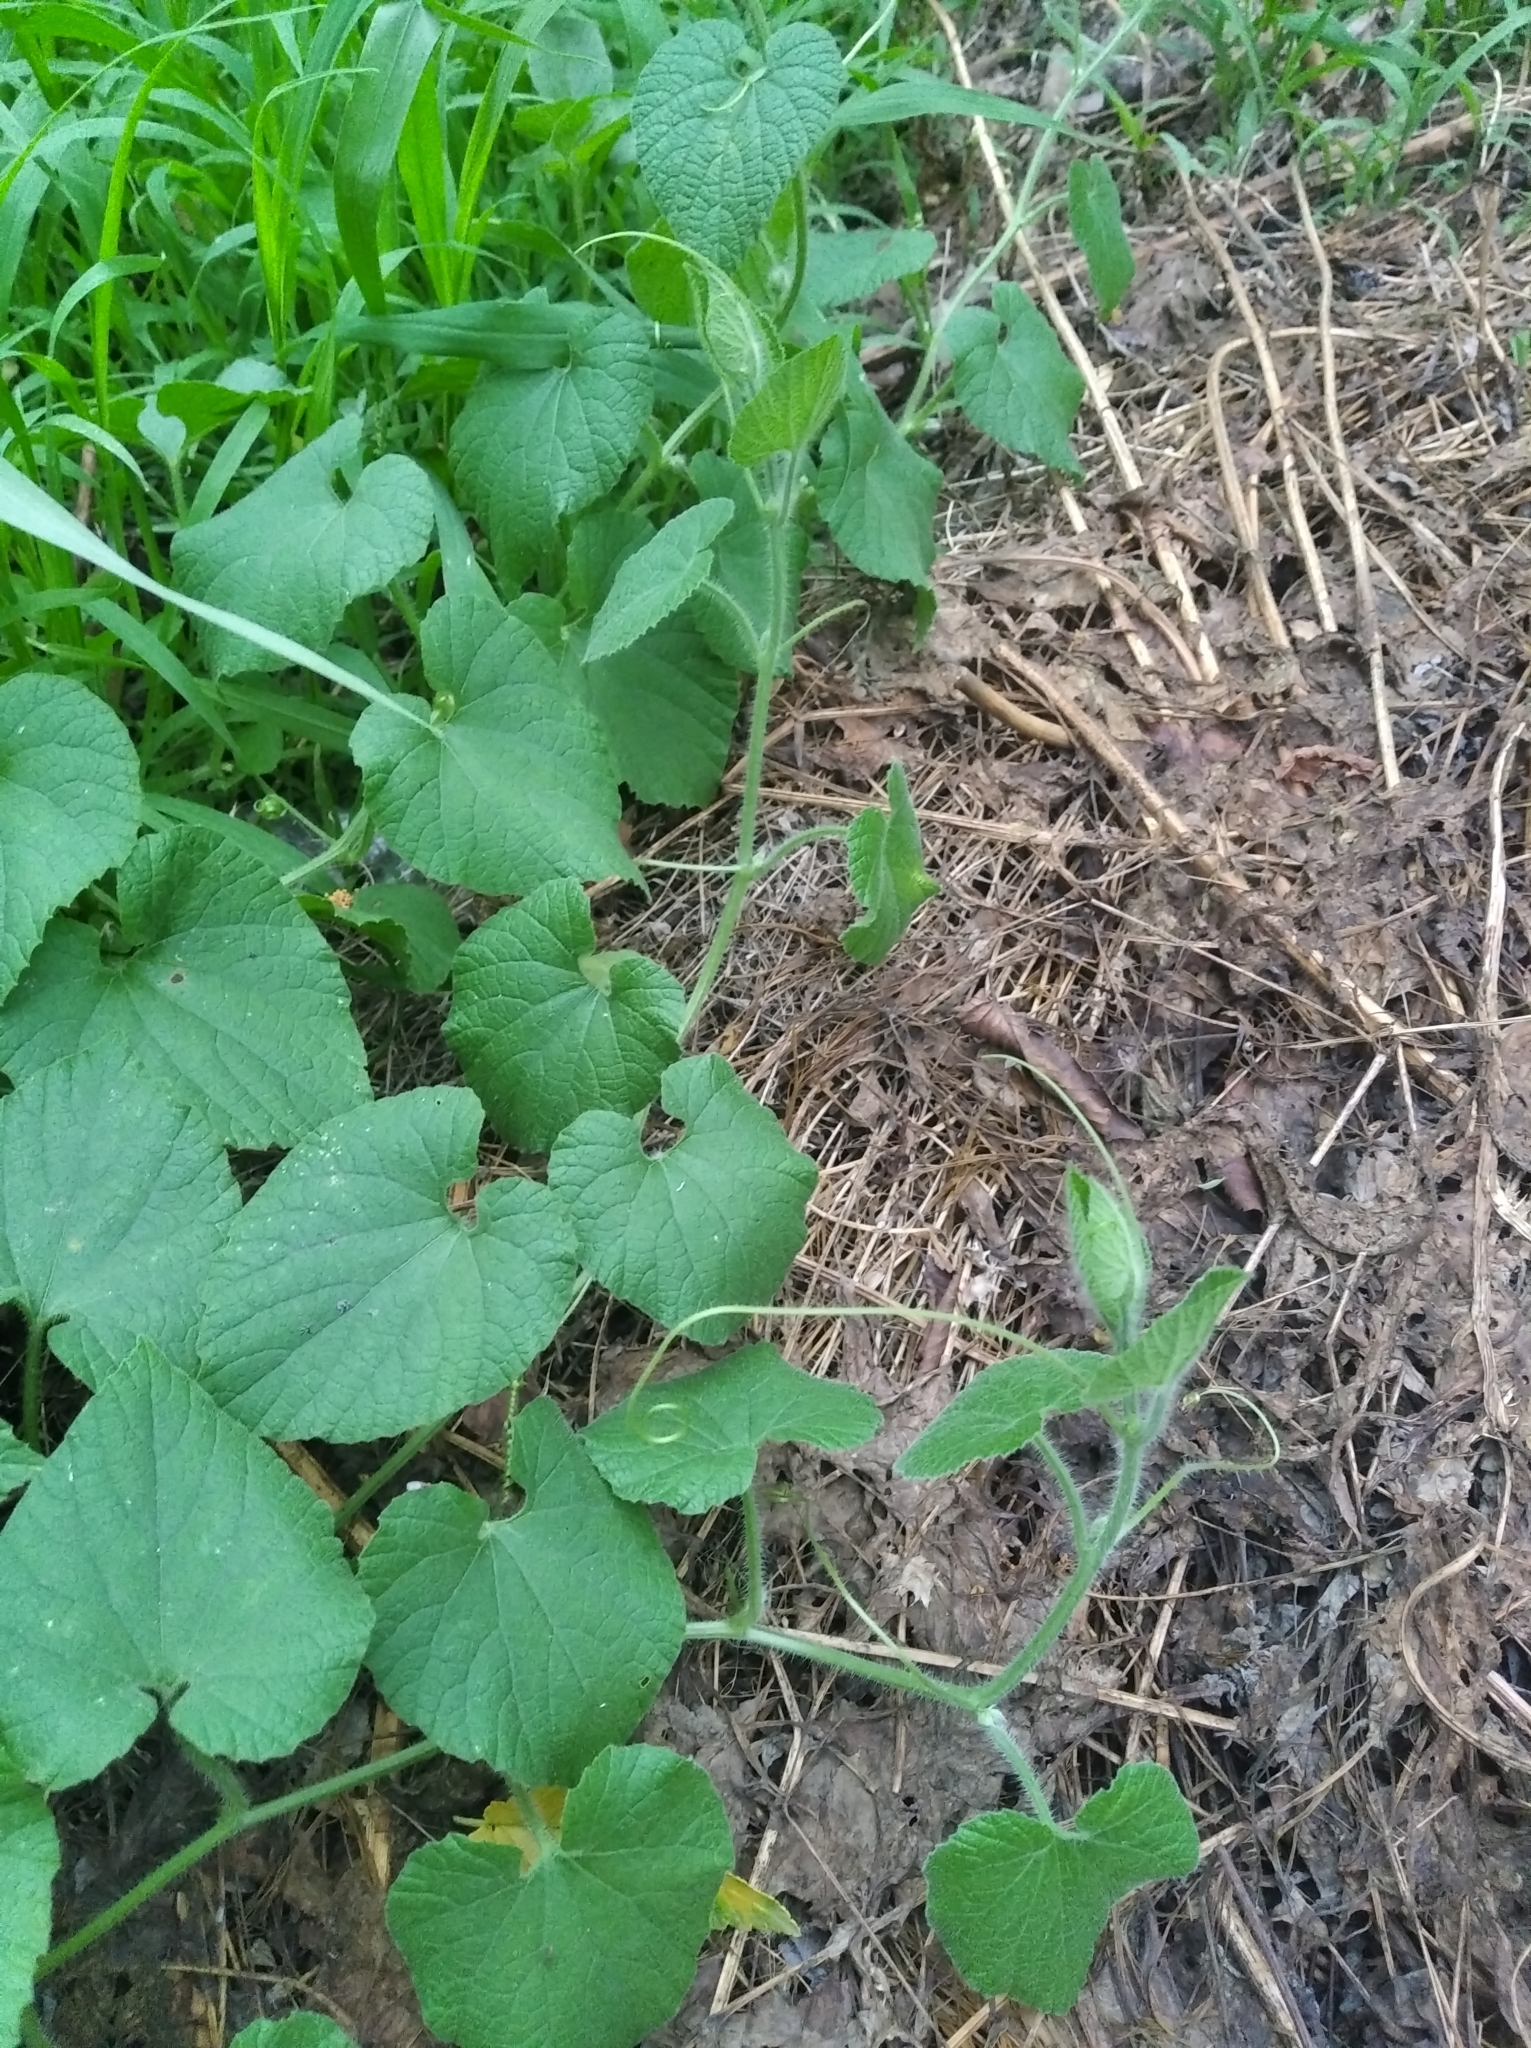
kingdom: Plantae
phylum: Tracheophyta
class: Magnoliopsida
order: Cucurbitales
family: Cucurbitaceae
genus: Thladiantha
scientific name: Thladiantha dubia
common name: Manchu tubergourd
